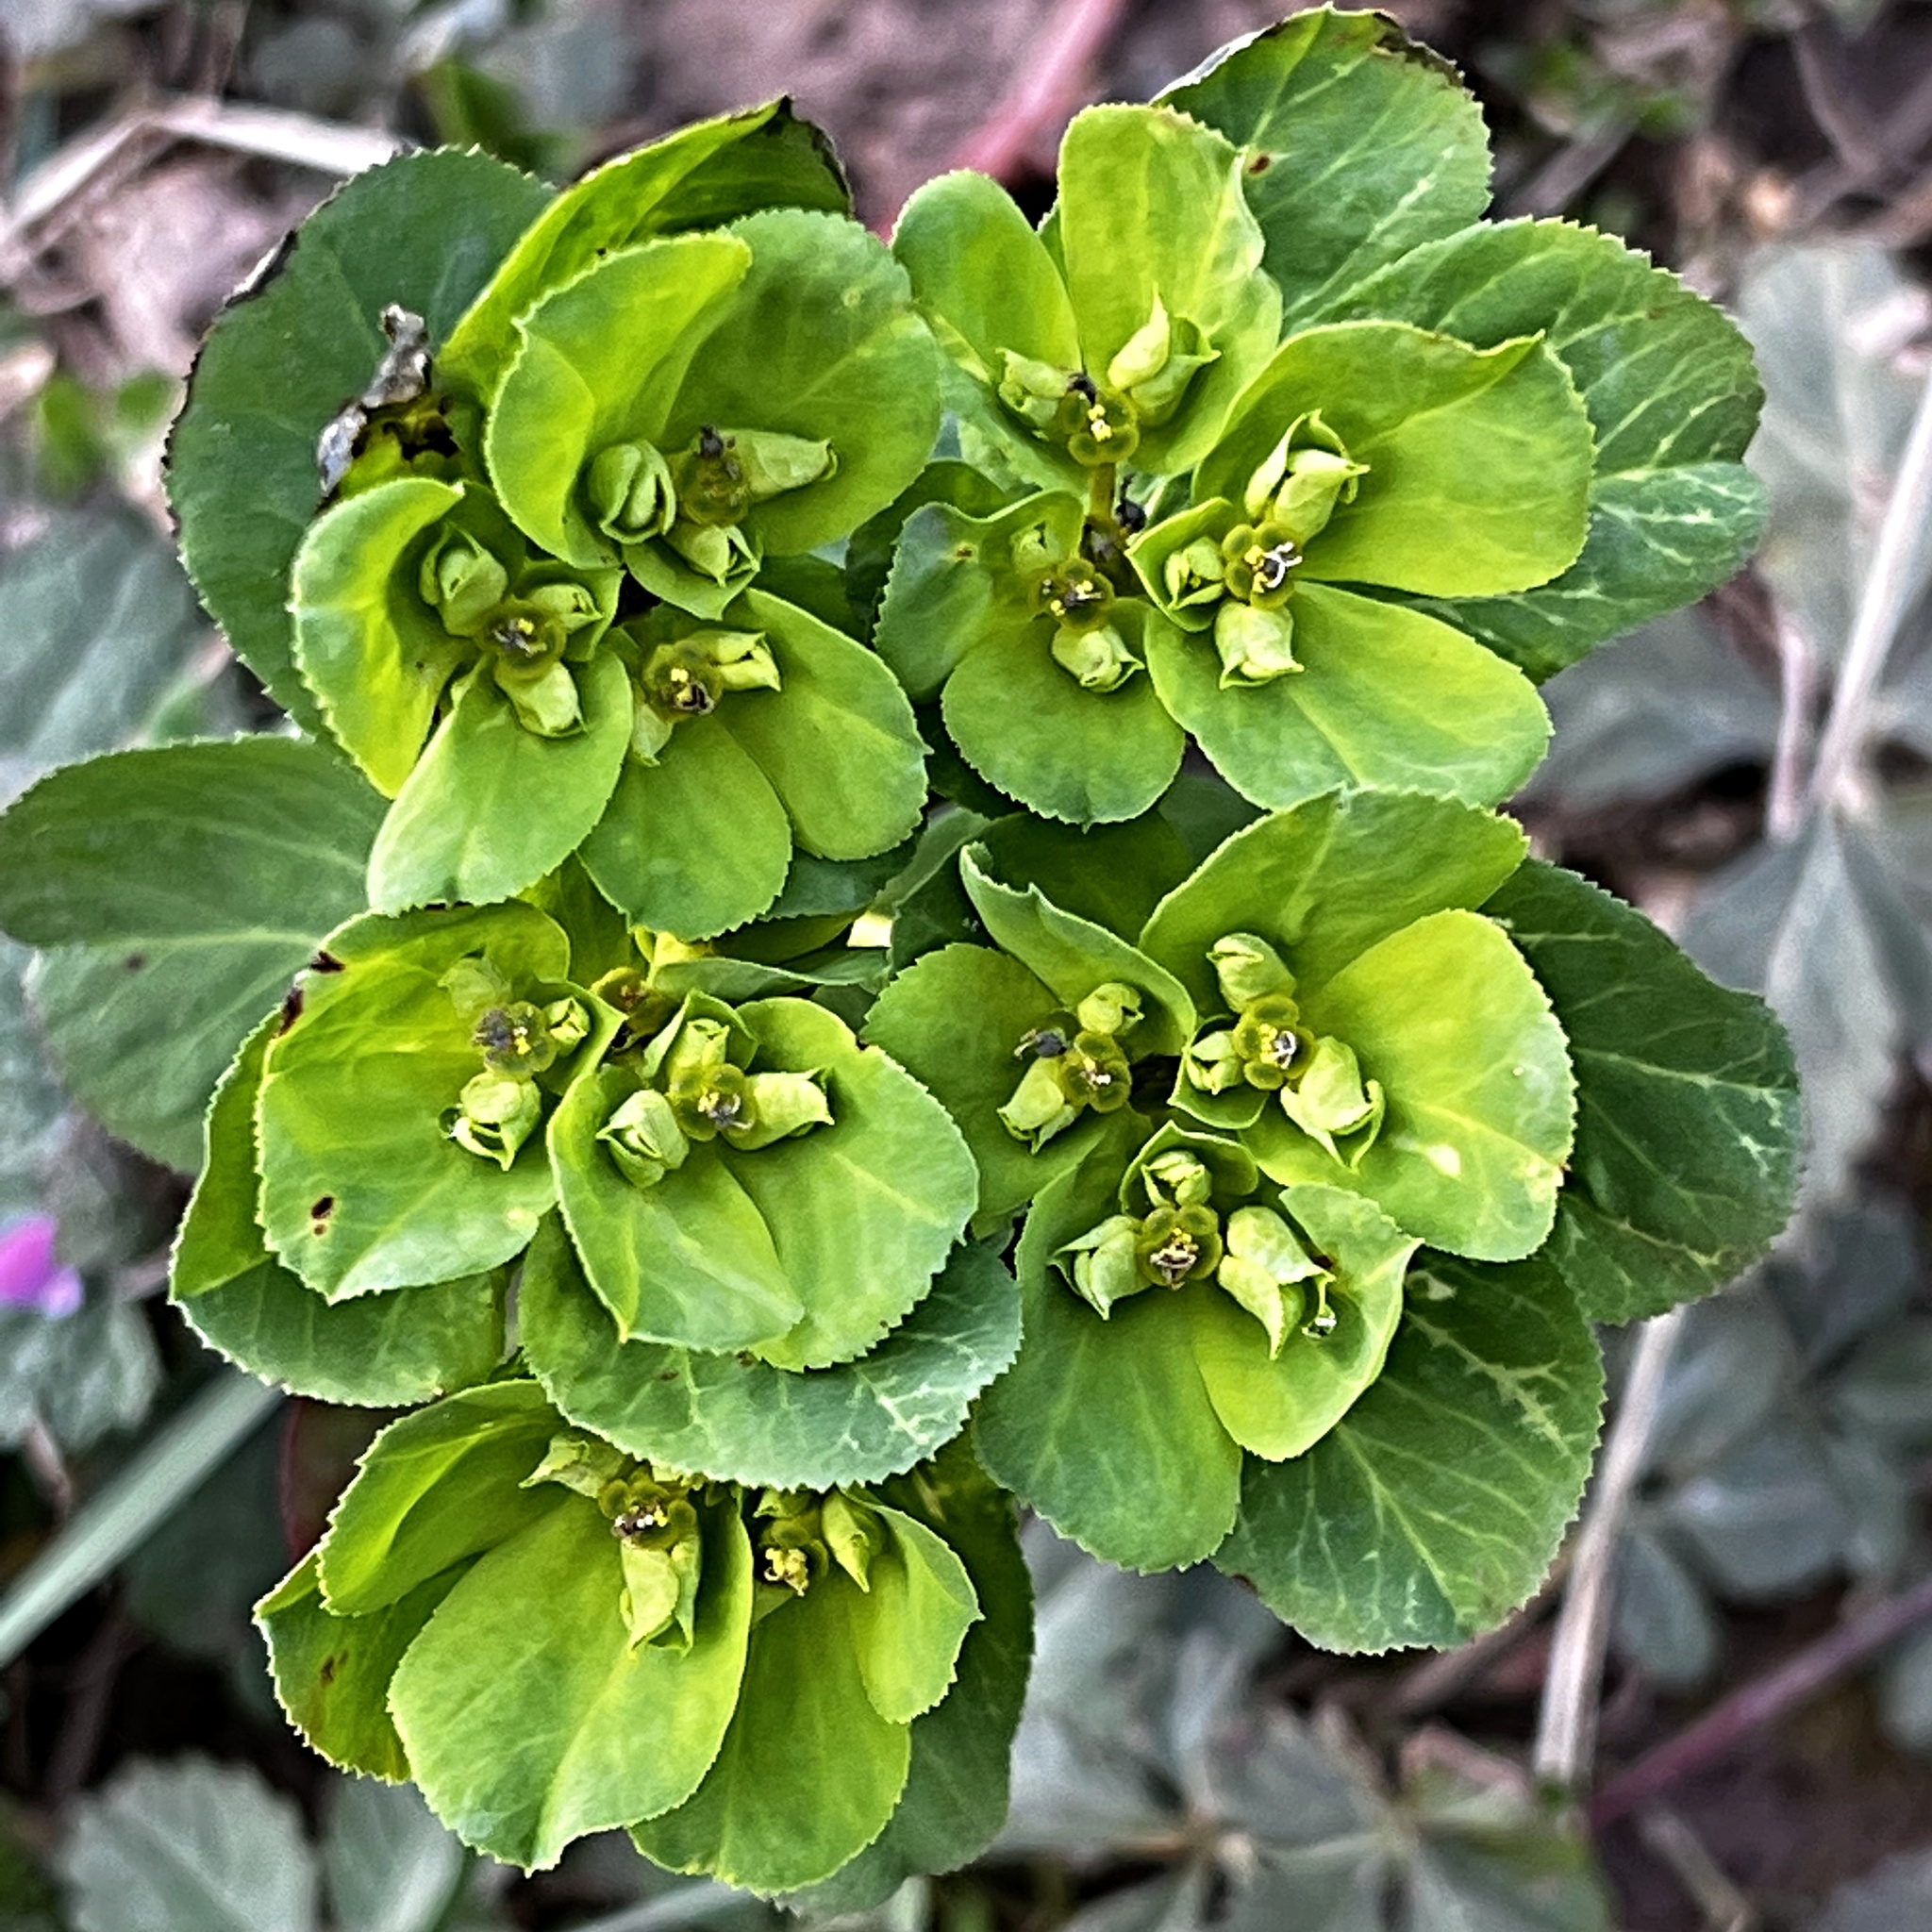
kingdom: Plantae
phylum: Tracheophyta
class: Magnoliopsida
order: Malpighiales
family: Euphorbiaceae
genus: Euphorbia
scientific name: Euphorbia helioscopia
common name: Sun spurge
